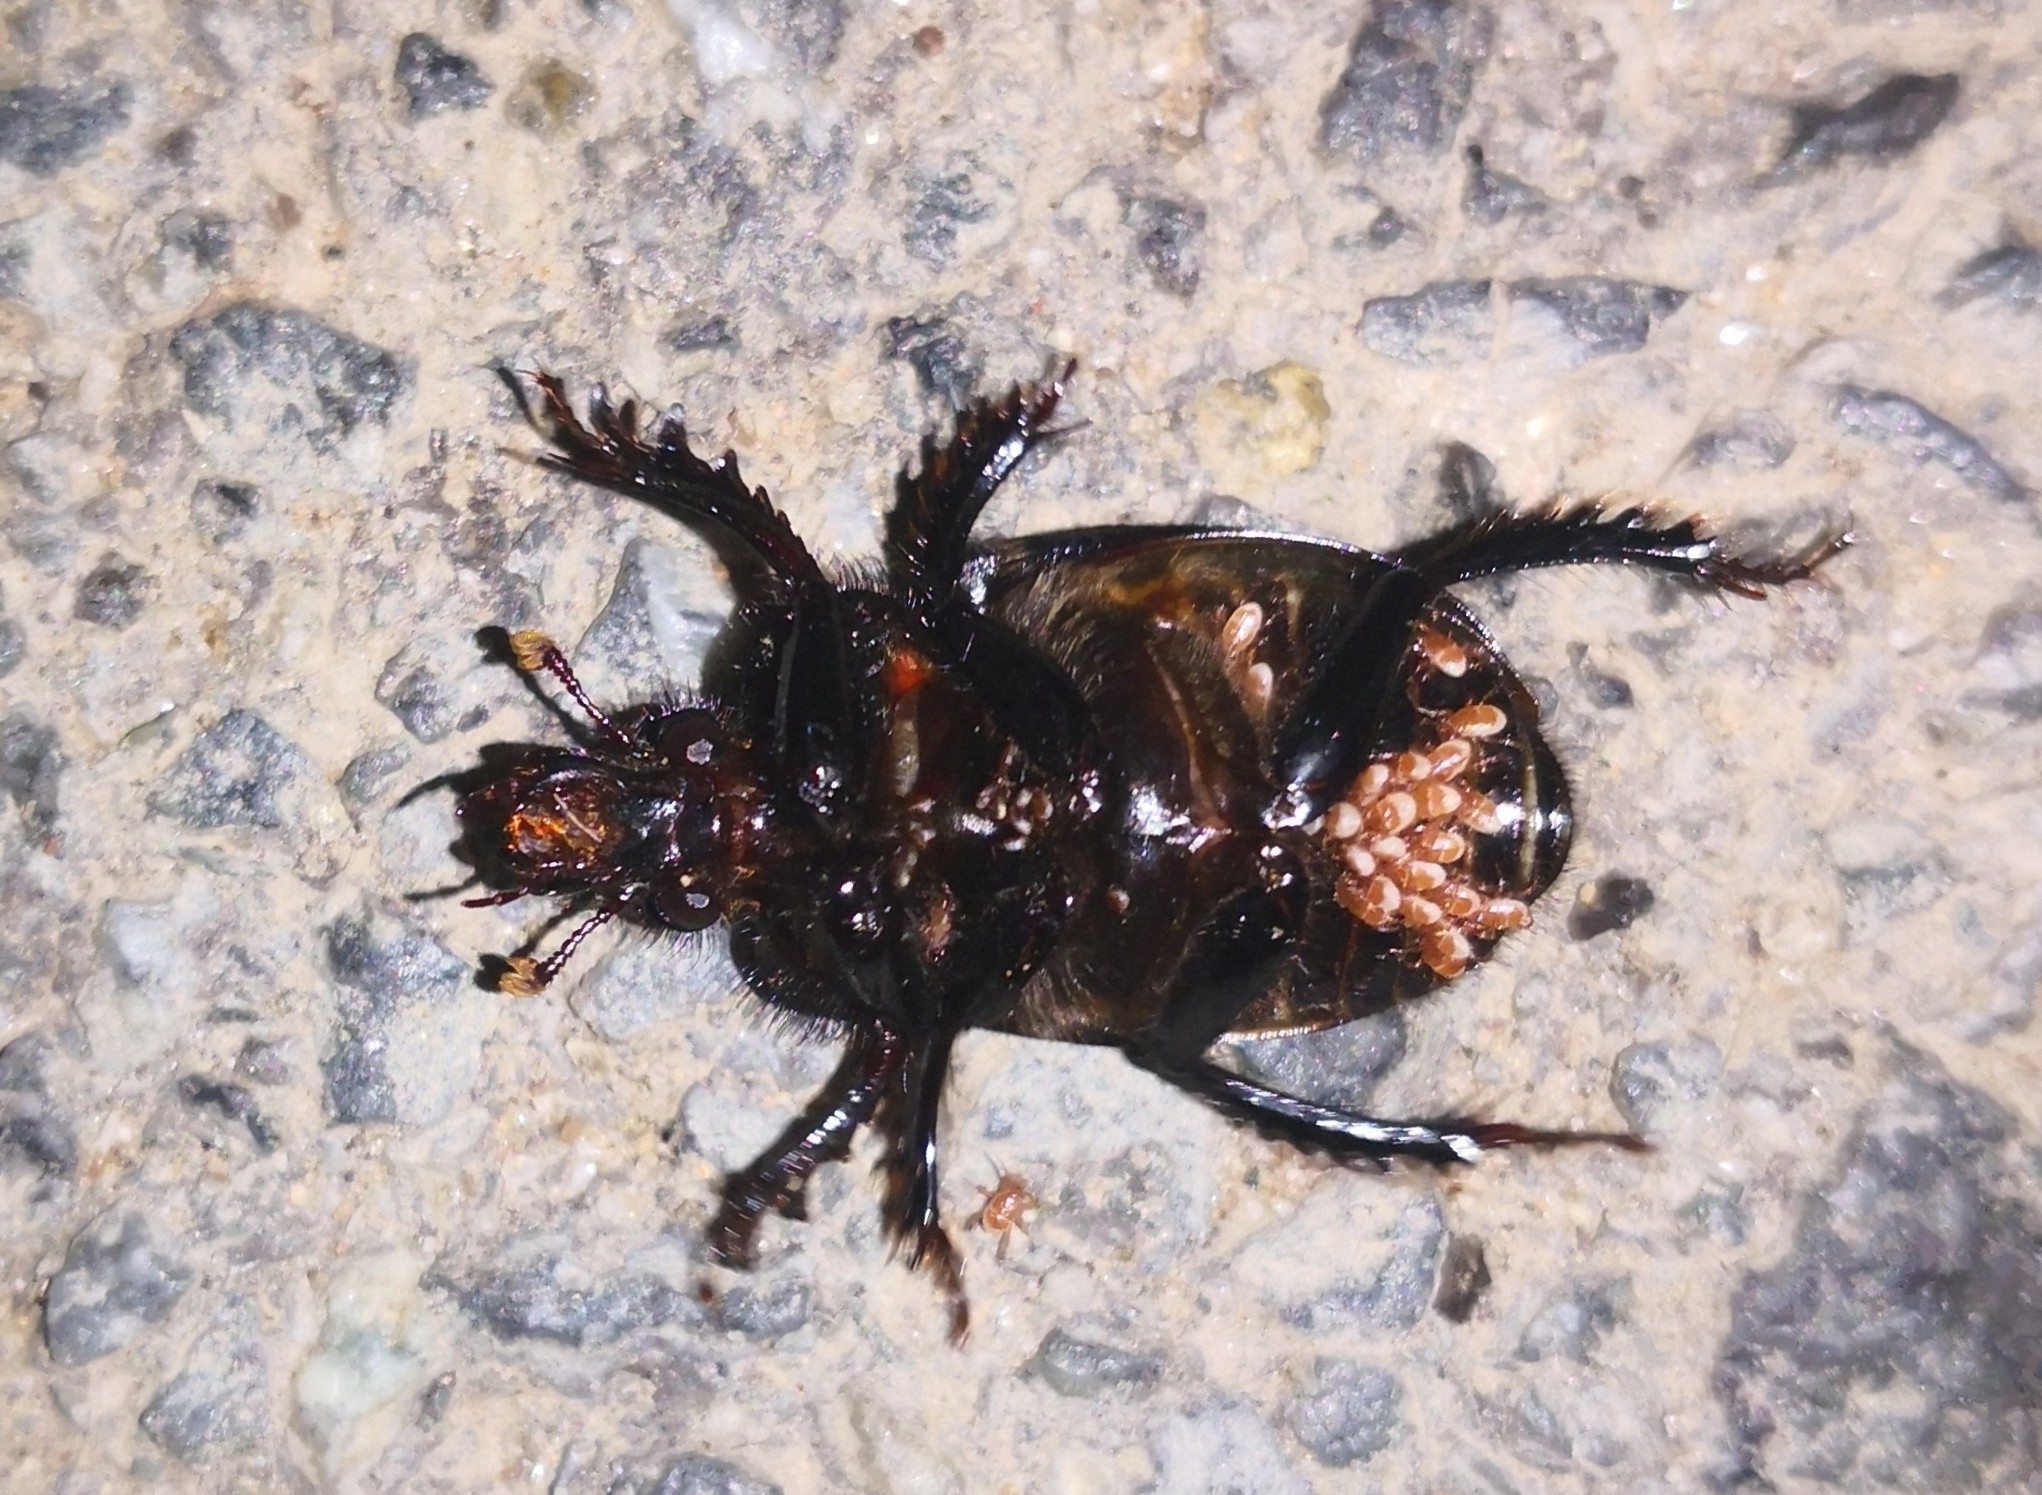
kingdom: Animalia
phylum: Arthropoda
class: Insecta
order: Coleoptera
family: Geotrupidae
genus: Ceratophyus
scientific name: Ceratophyus hoffmannseggi
